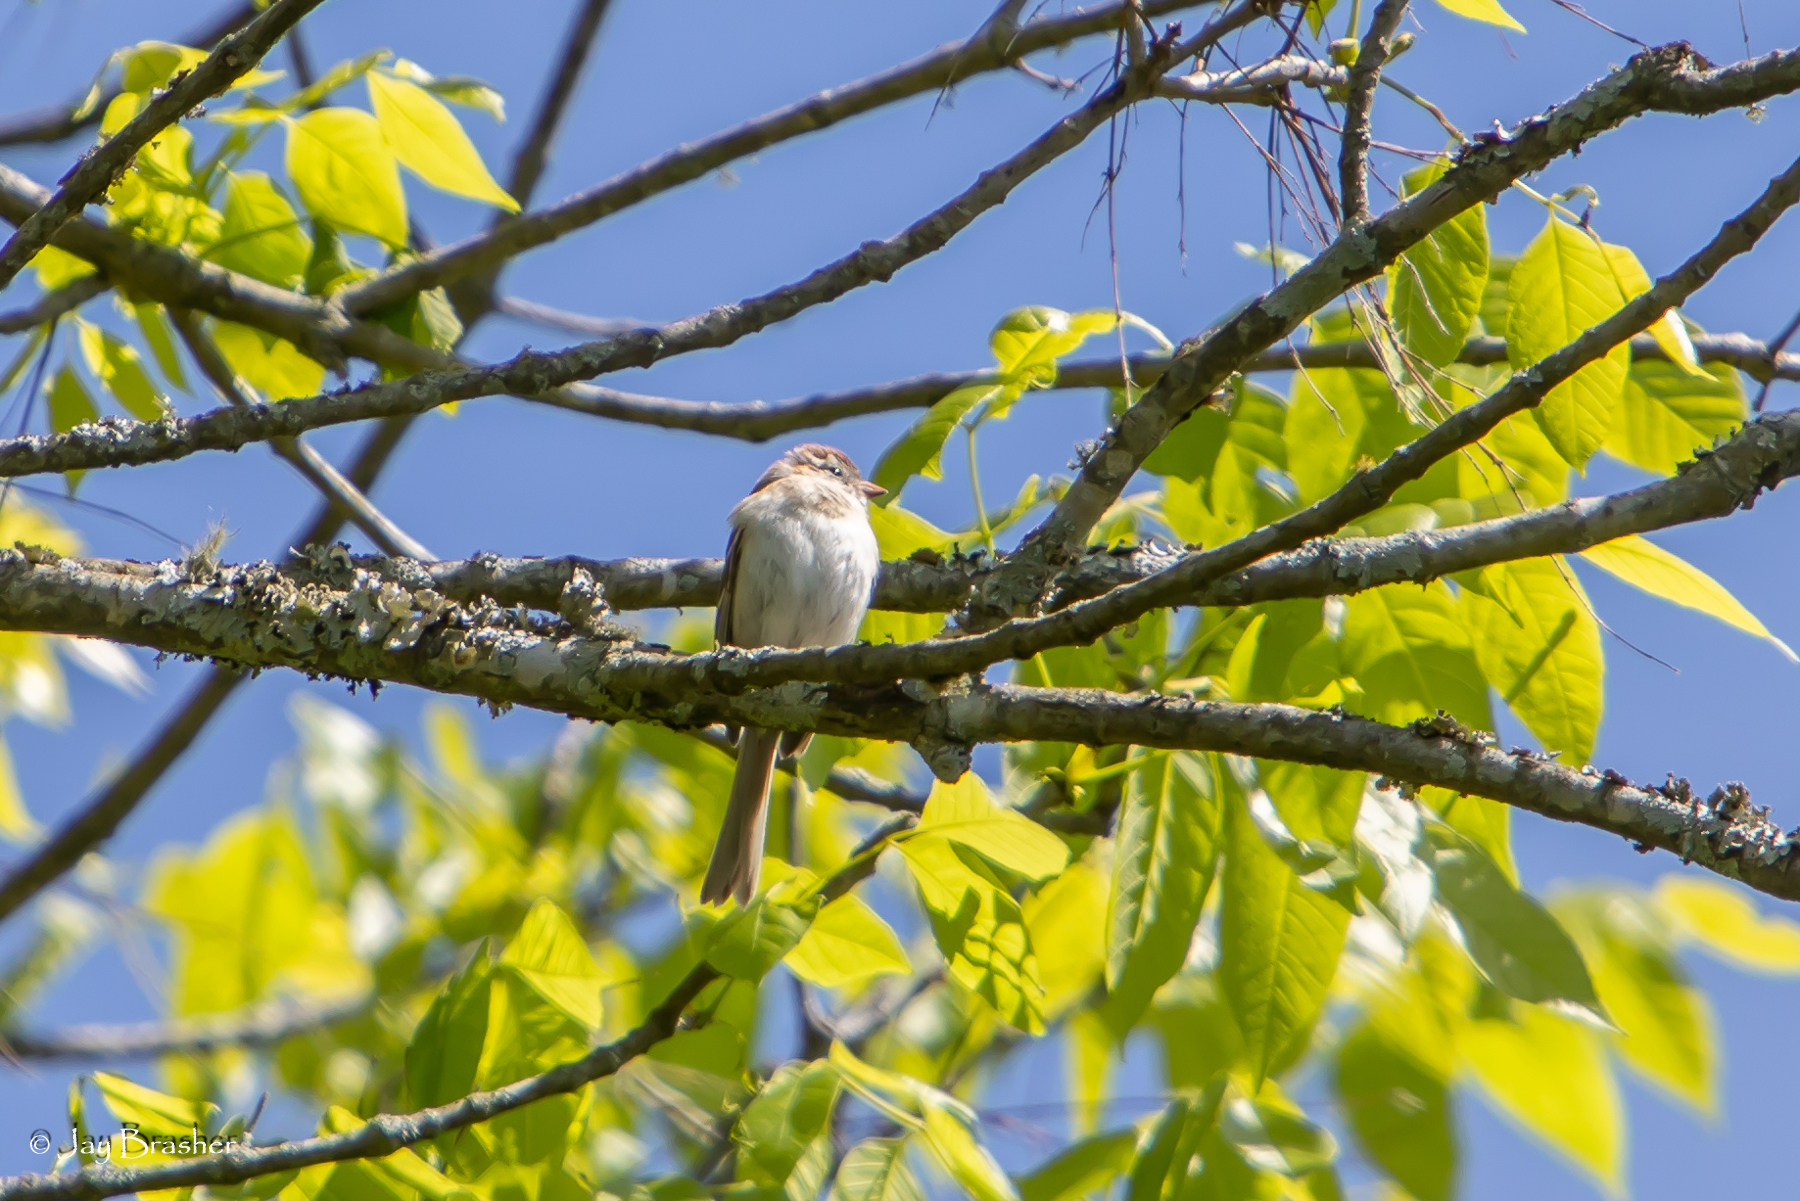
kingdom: Animalia
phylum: Chordata
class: Aves
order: Passeriformes
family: Passerellidae
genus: Spizella
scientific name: Spizella pusilla
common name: Field sparrow
